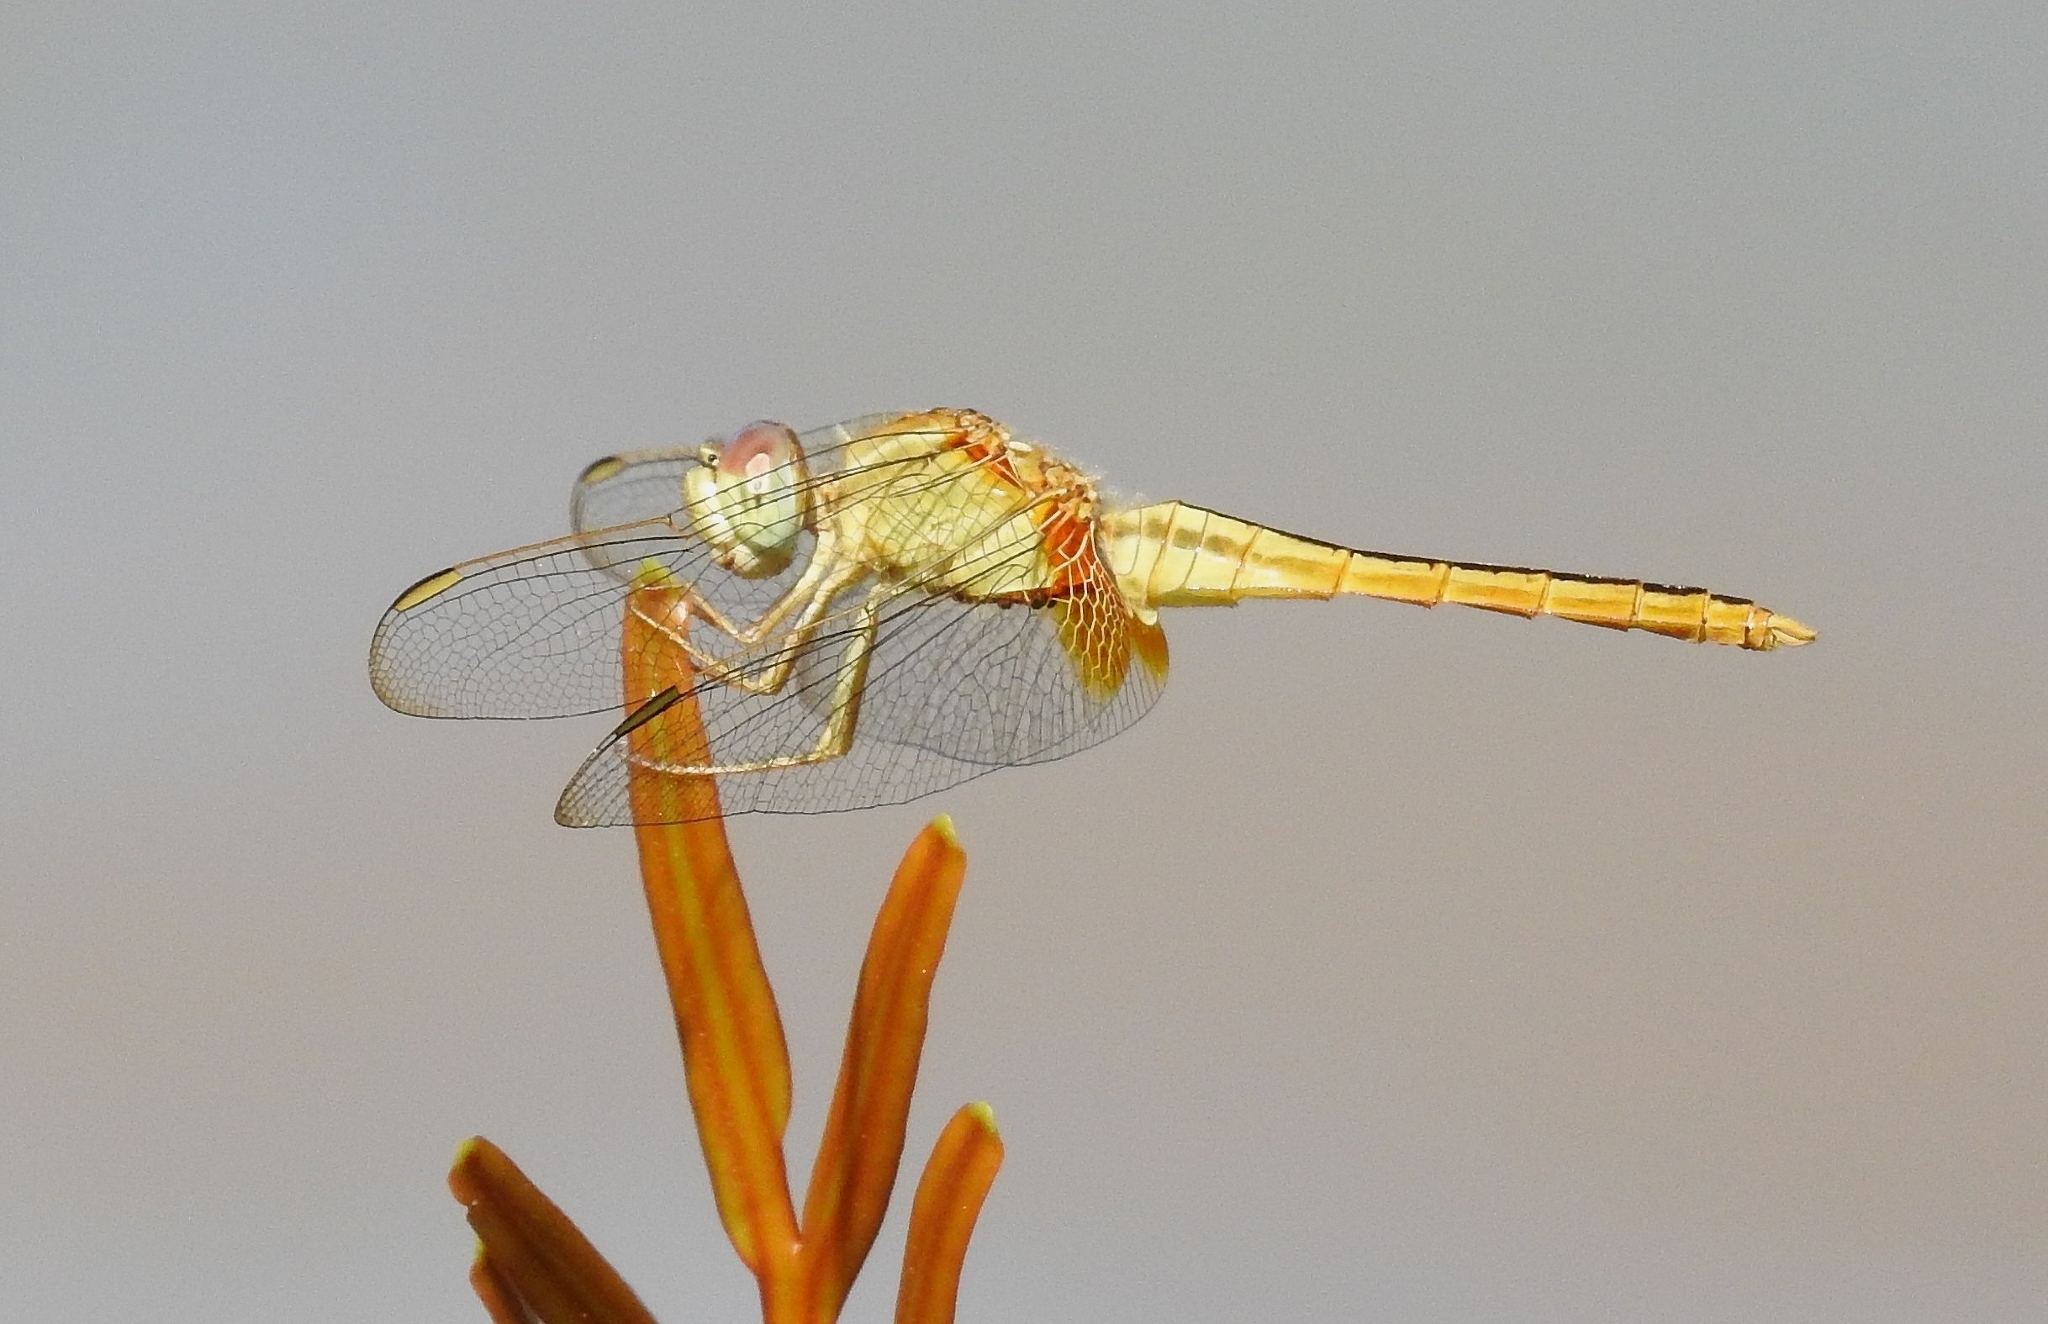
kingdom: Animalia
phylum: Arthropoda
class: Insecta
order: Odonata
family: Libellulidae
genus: Crocothemis
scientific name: Crocothemis servilia
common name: Scarlet skimmer
